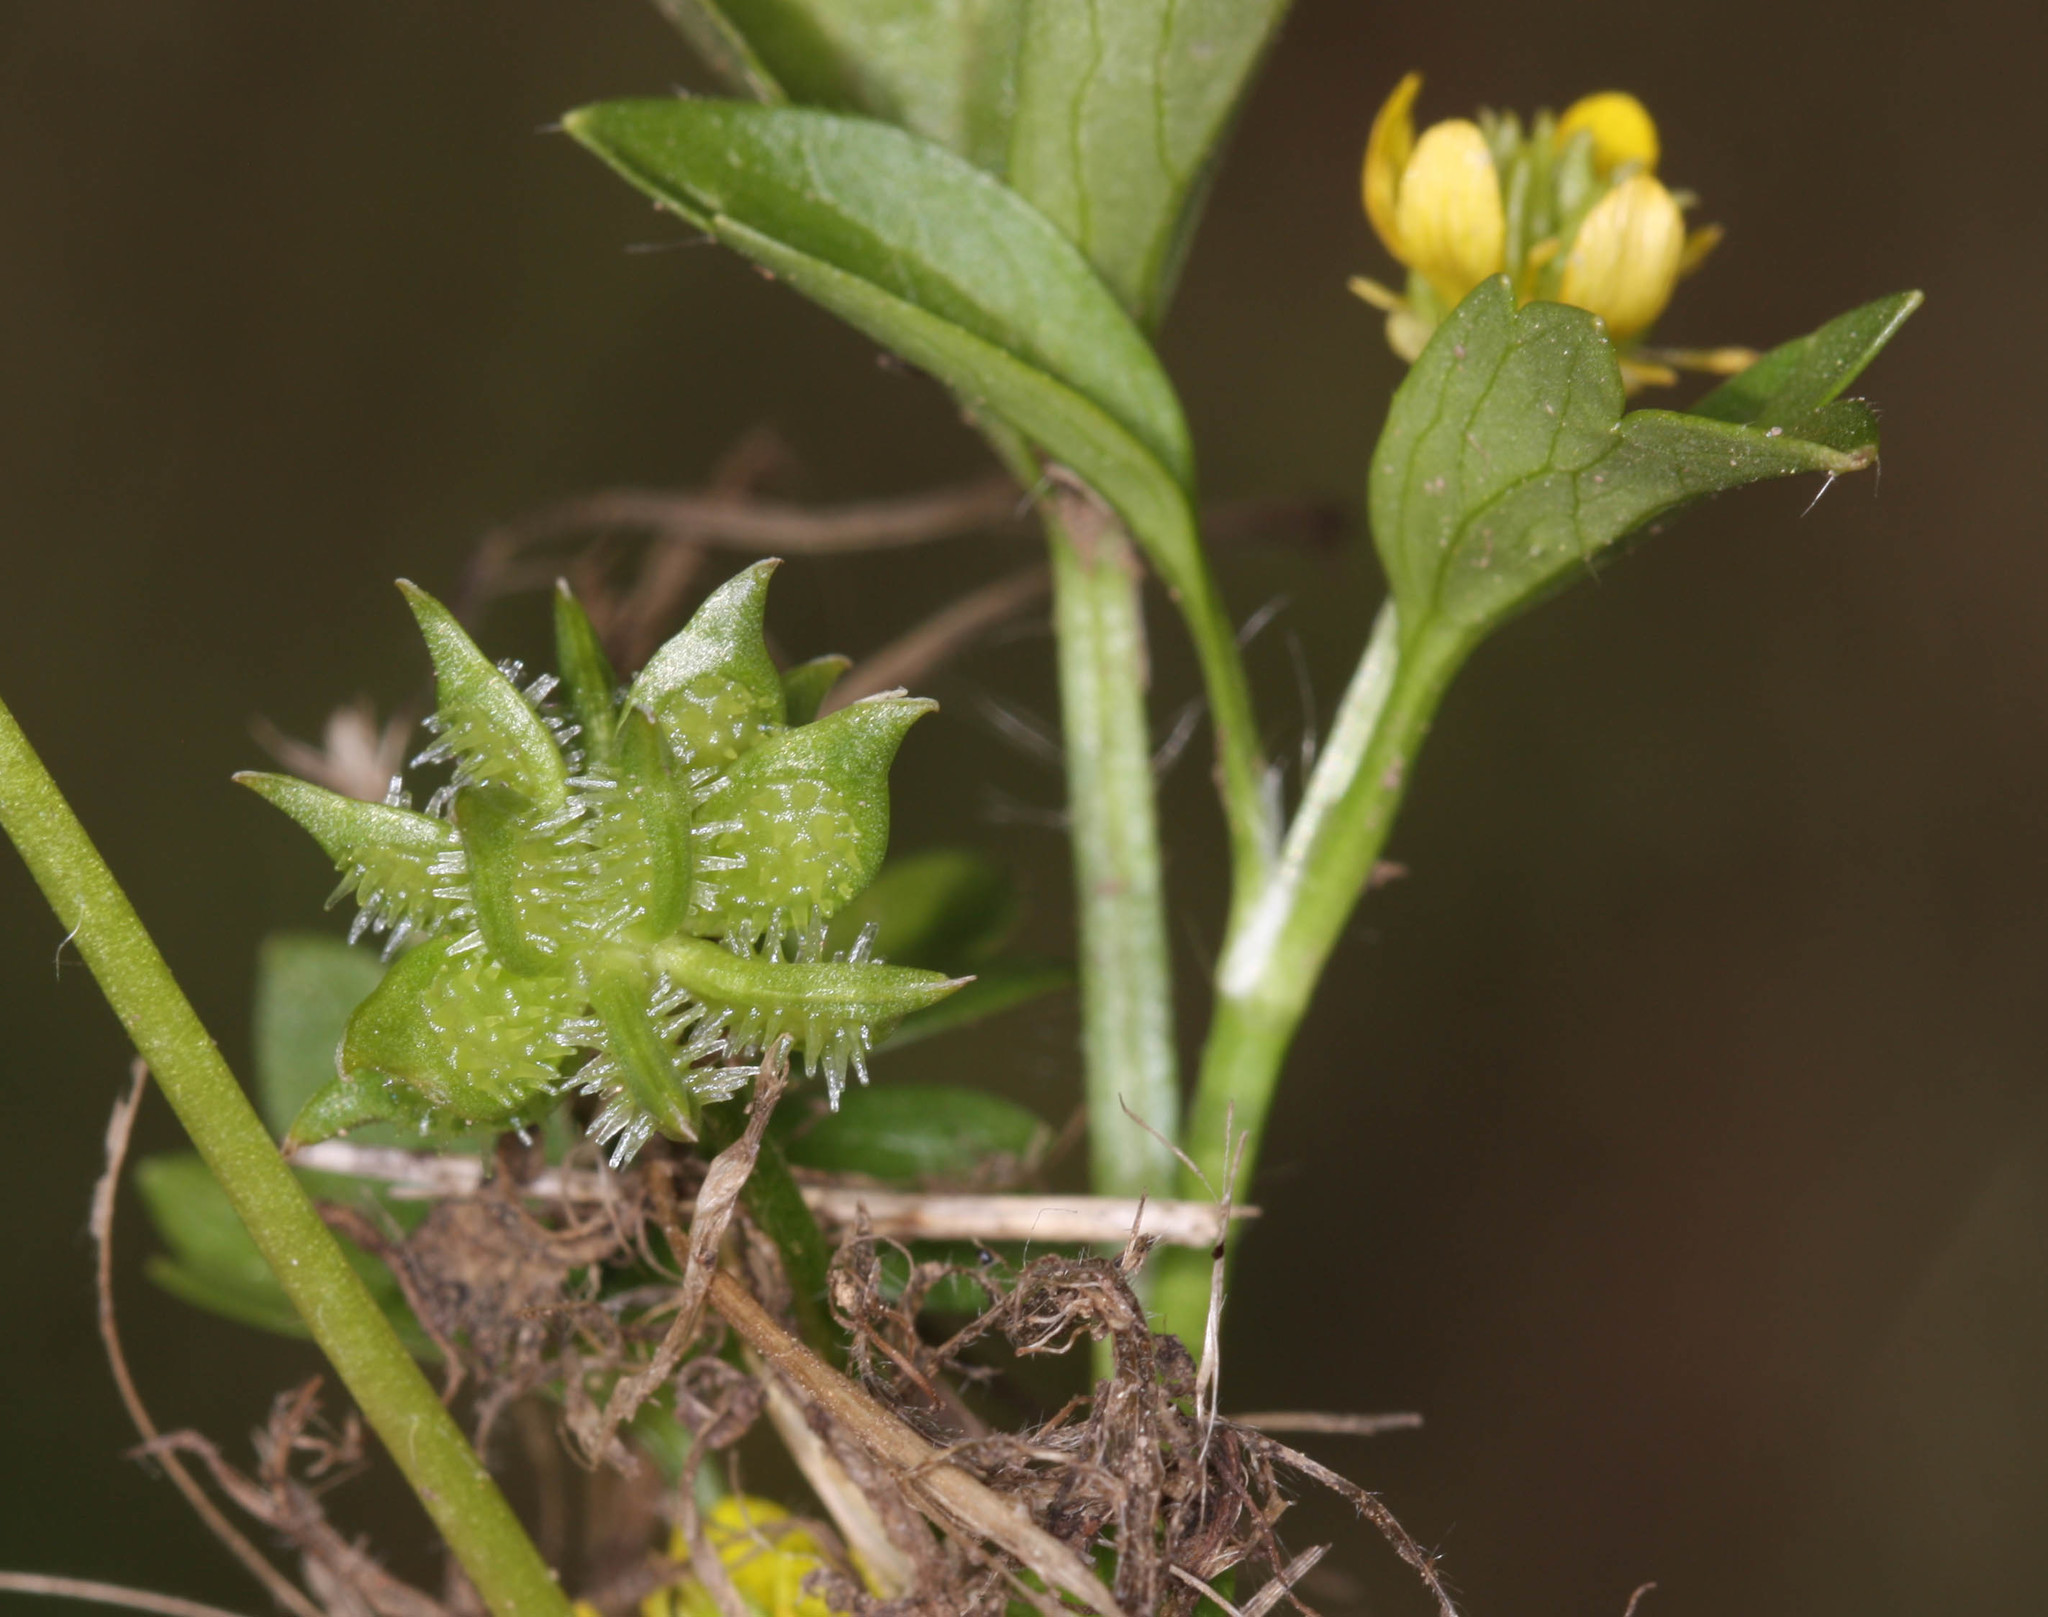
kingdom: Plantae
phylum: Tracheophyta
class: Magnoliopsida
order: Ranunculales
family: Ranunculaceae
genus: Ranunculus
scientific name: Ranunculus muricatus
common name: Rough-fruited buttercup
